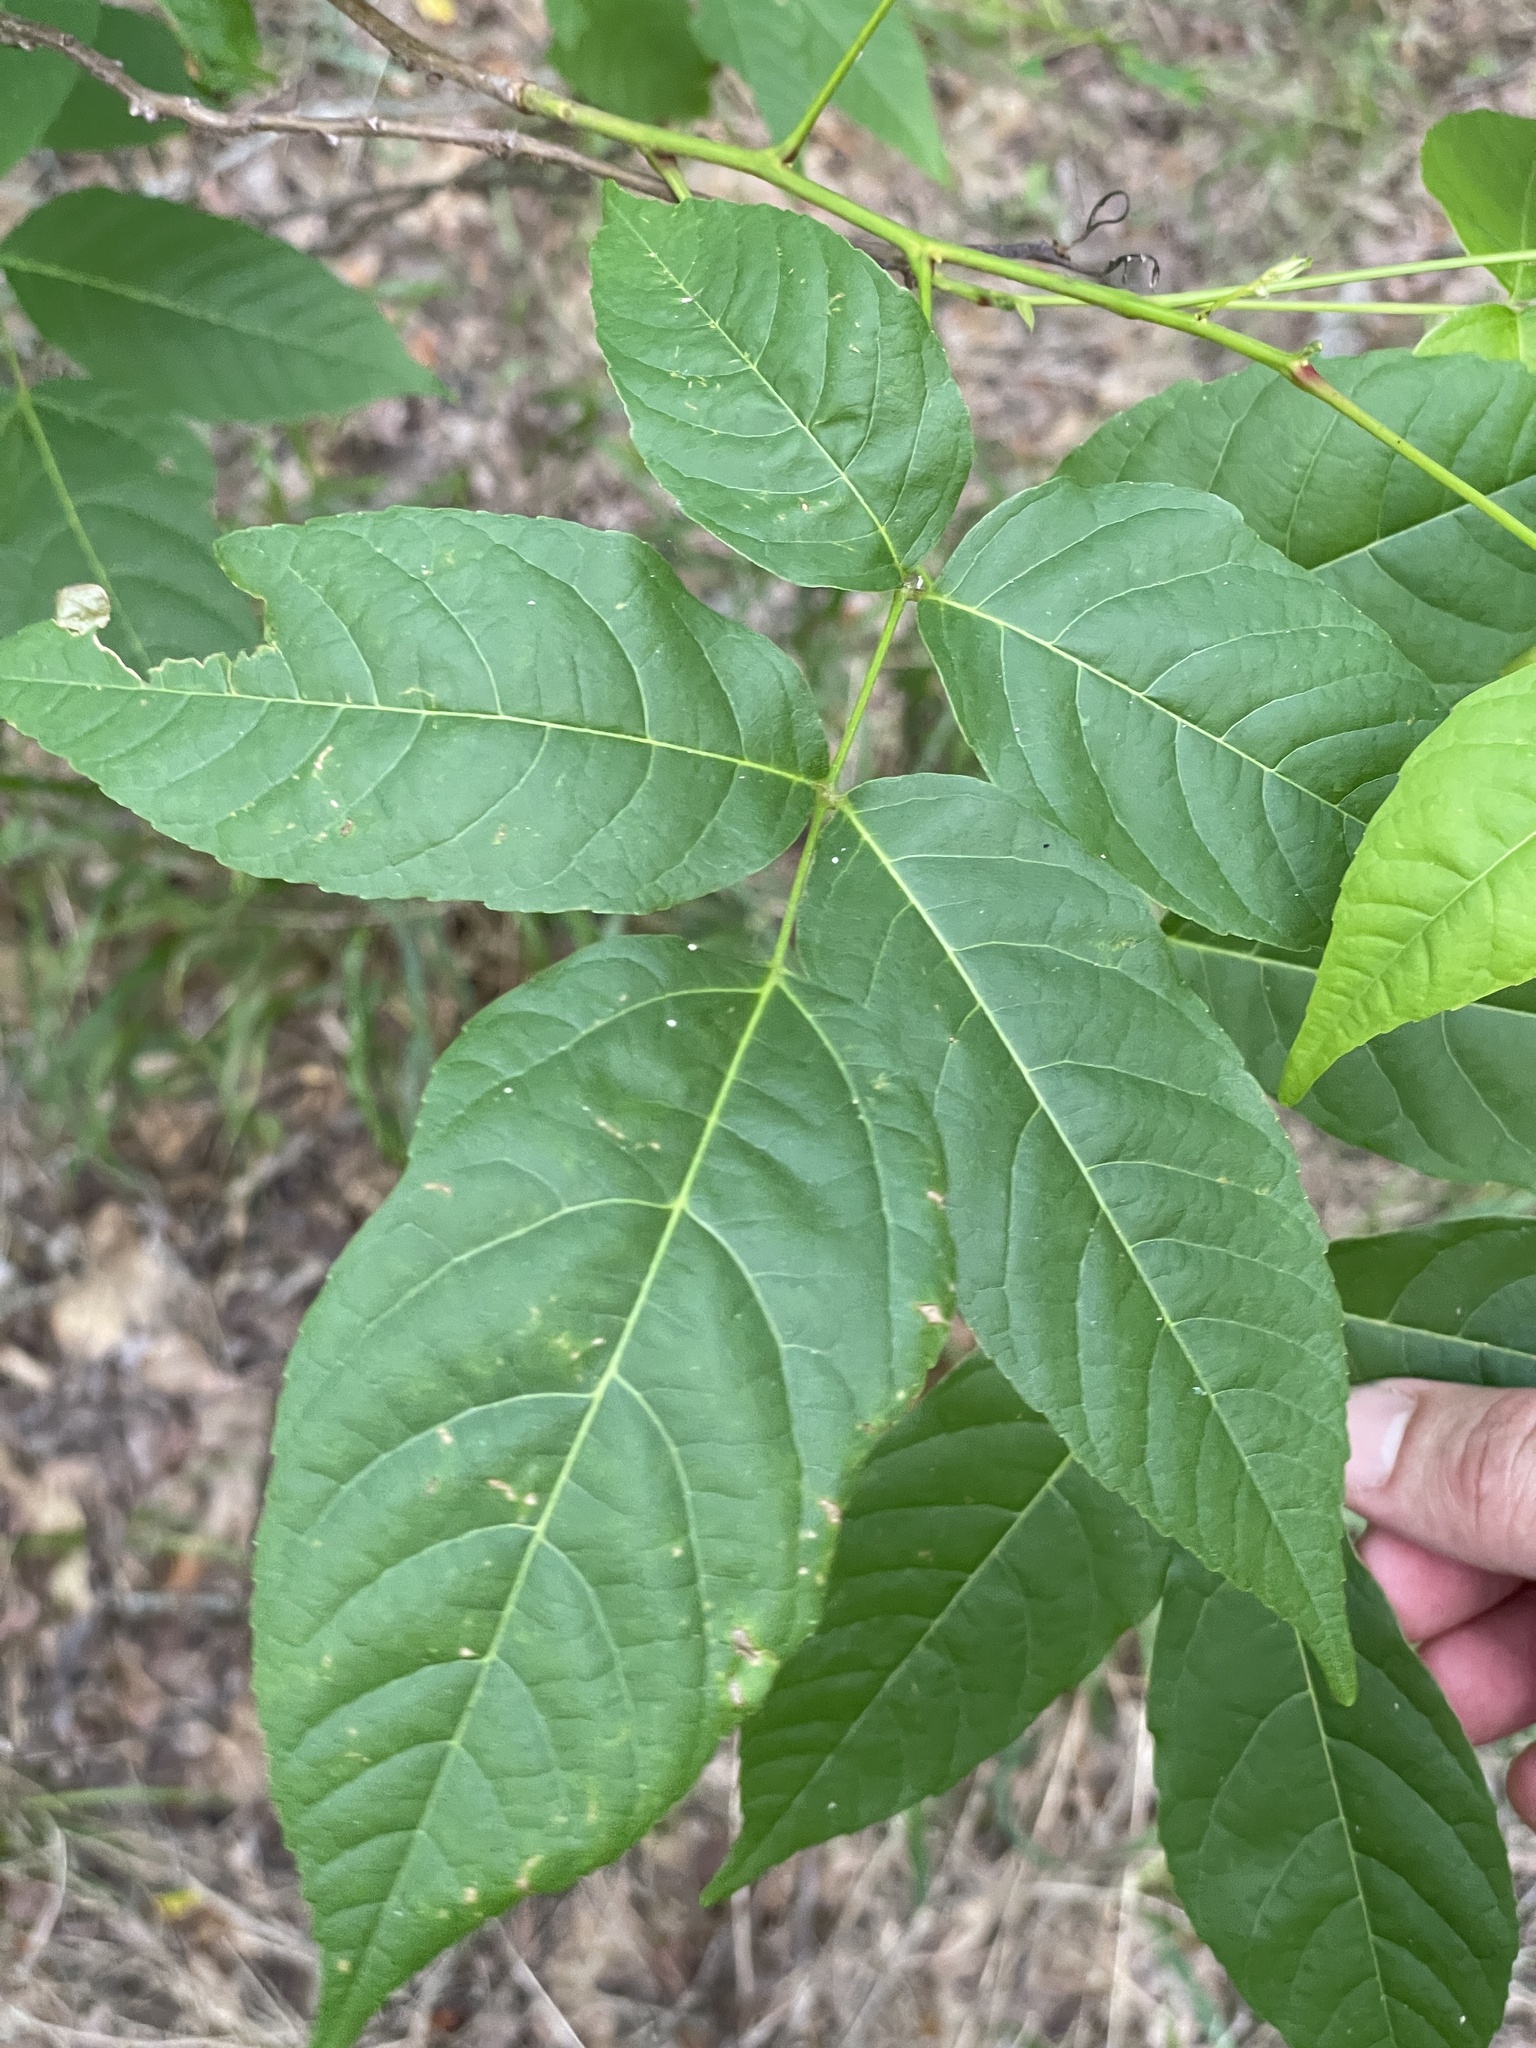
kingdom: Plantae
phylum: Tracheophyta
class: Magnoliopsida
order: Sapindales
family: Sapindaceae
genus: Ungnadia
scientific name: Ungnadia speciosa
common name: Texas-buckeye
